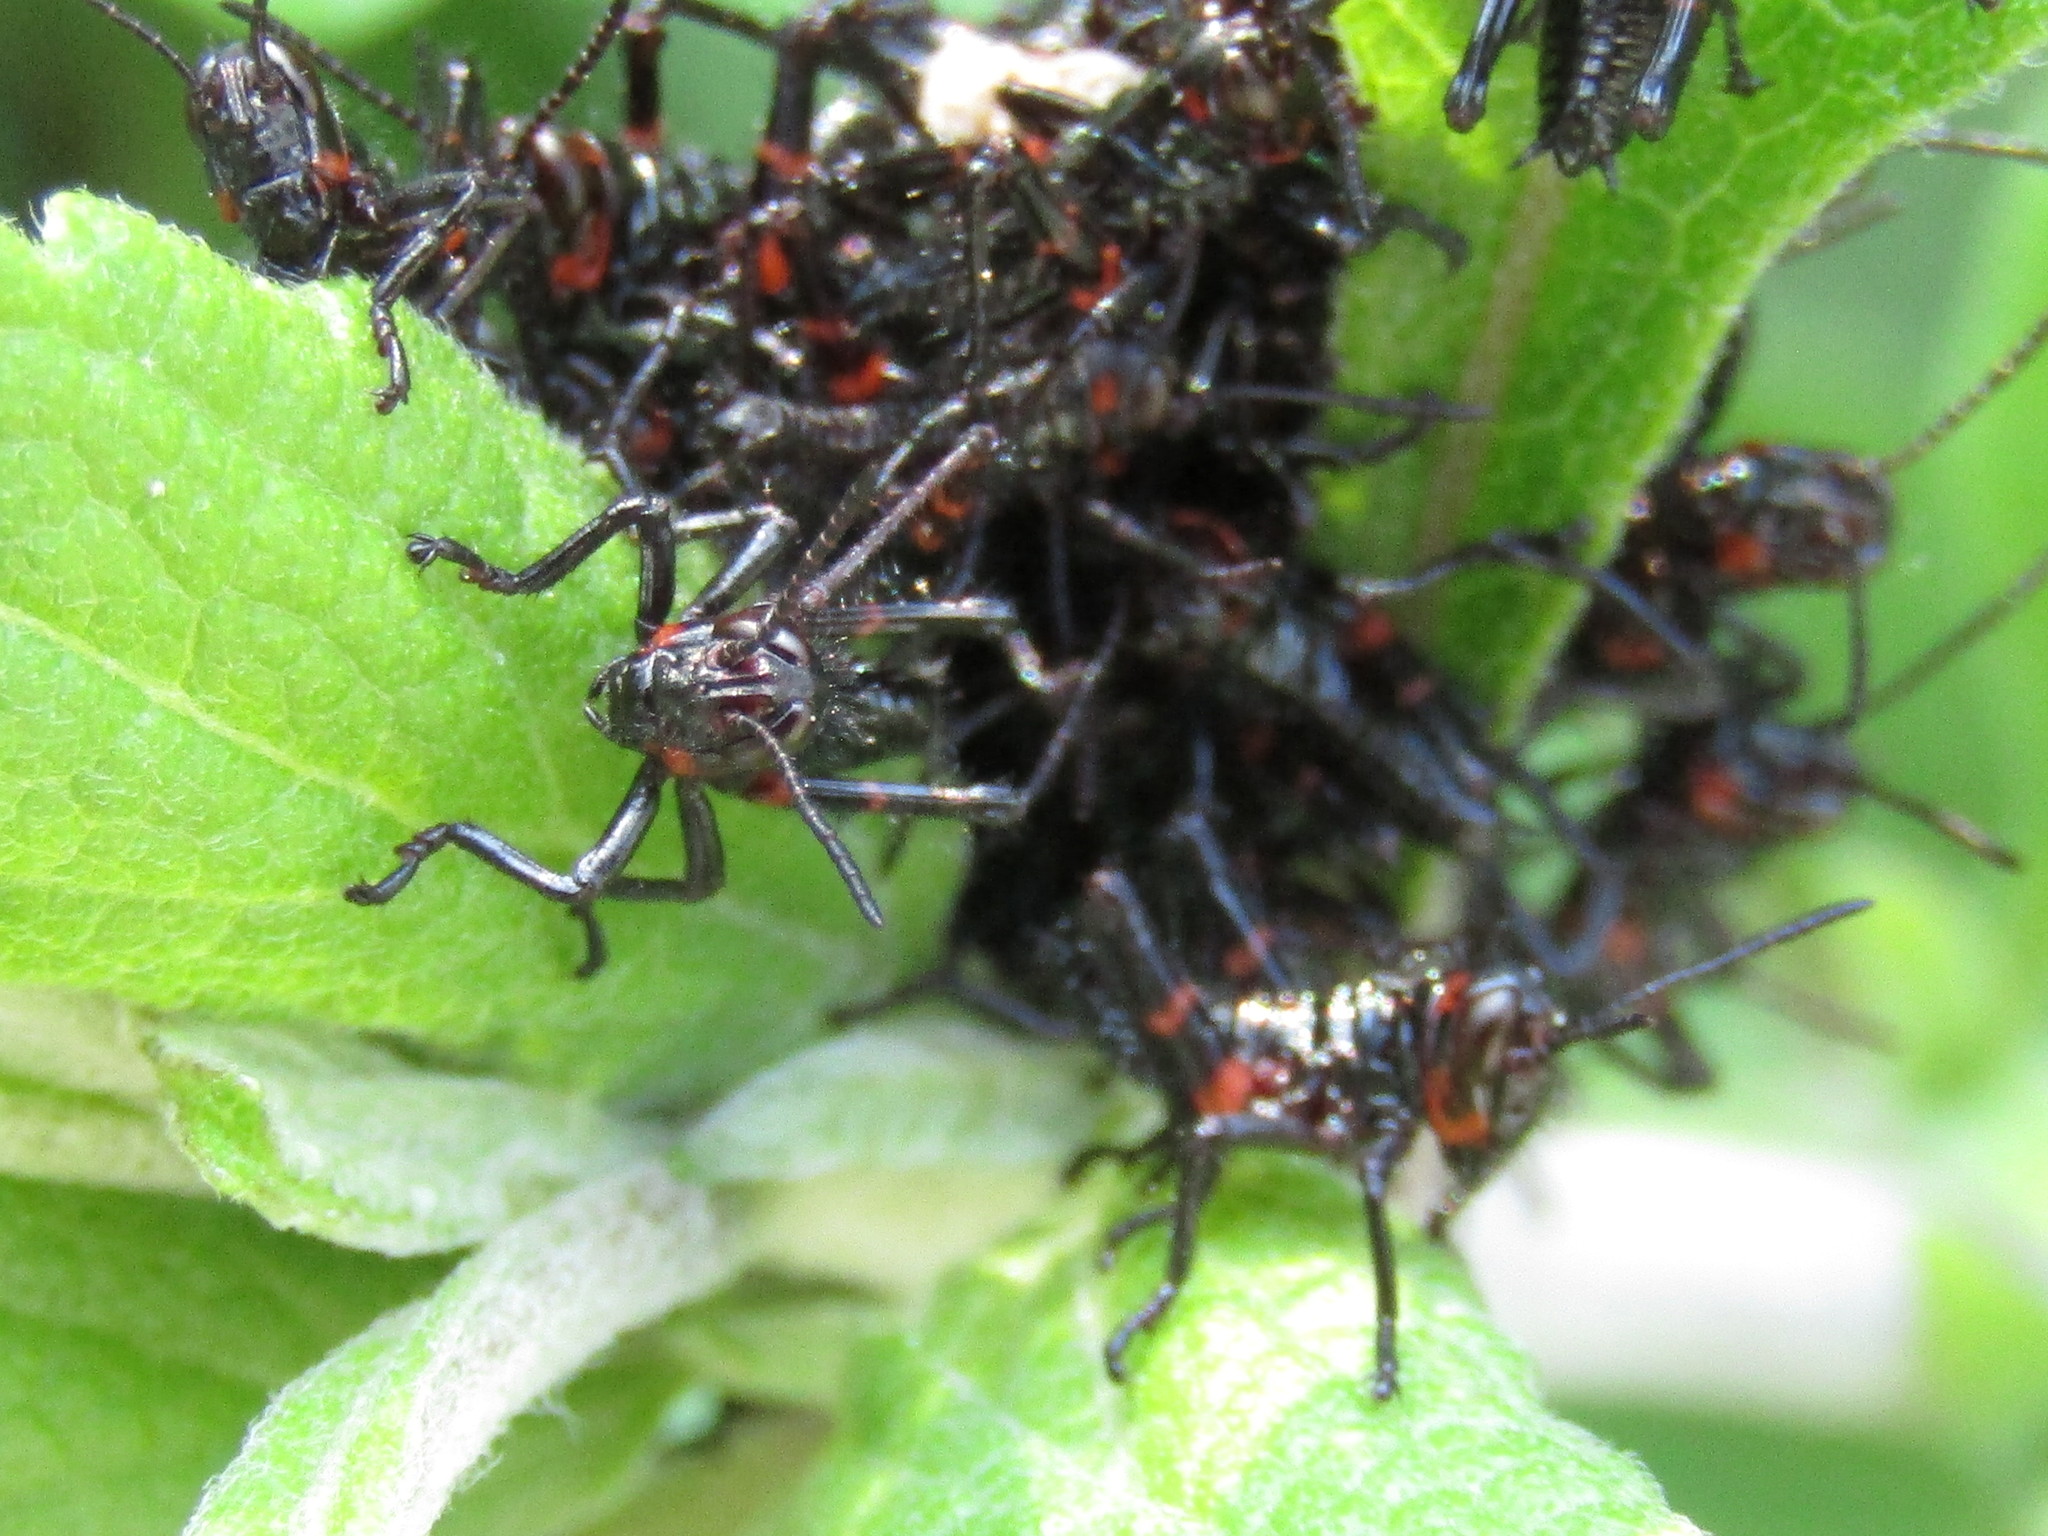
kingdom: Animalia
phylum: Arthropoda
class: Insecta
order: Orthoptera
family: Romaleidae
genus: Chromacris
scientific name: Chromacris speciosa
